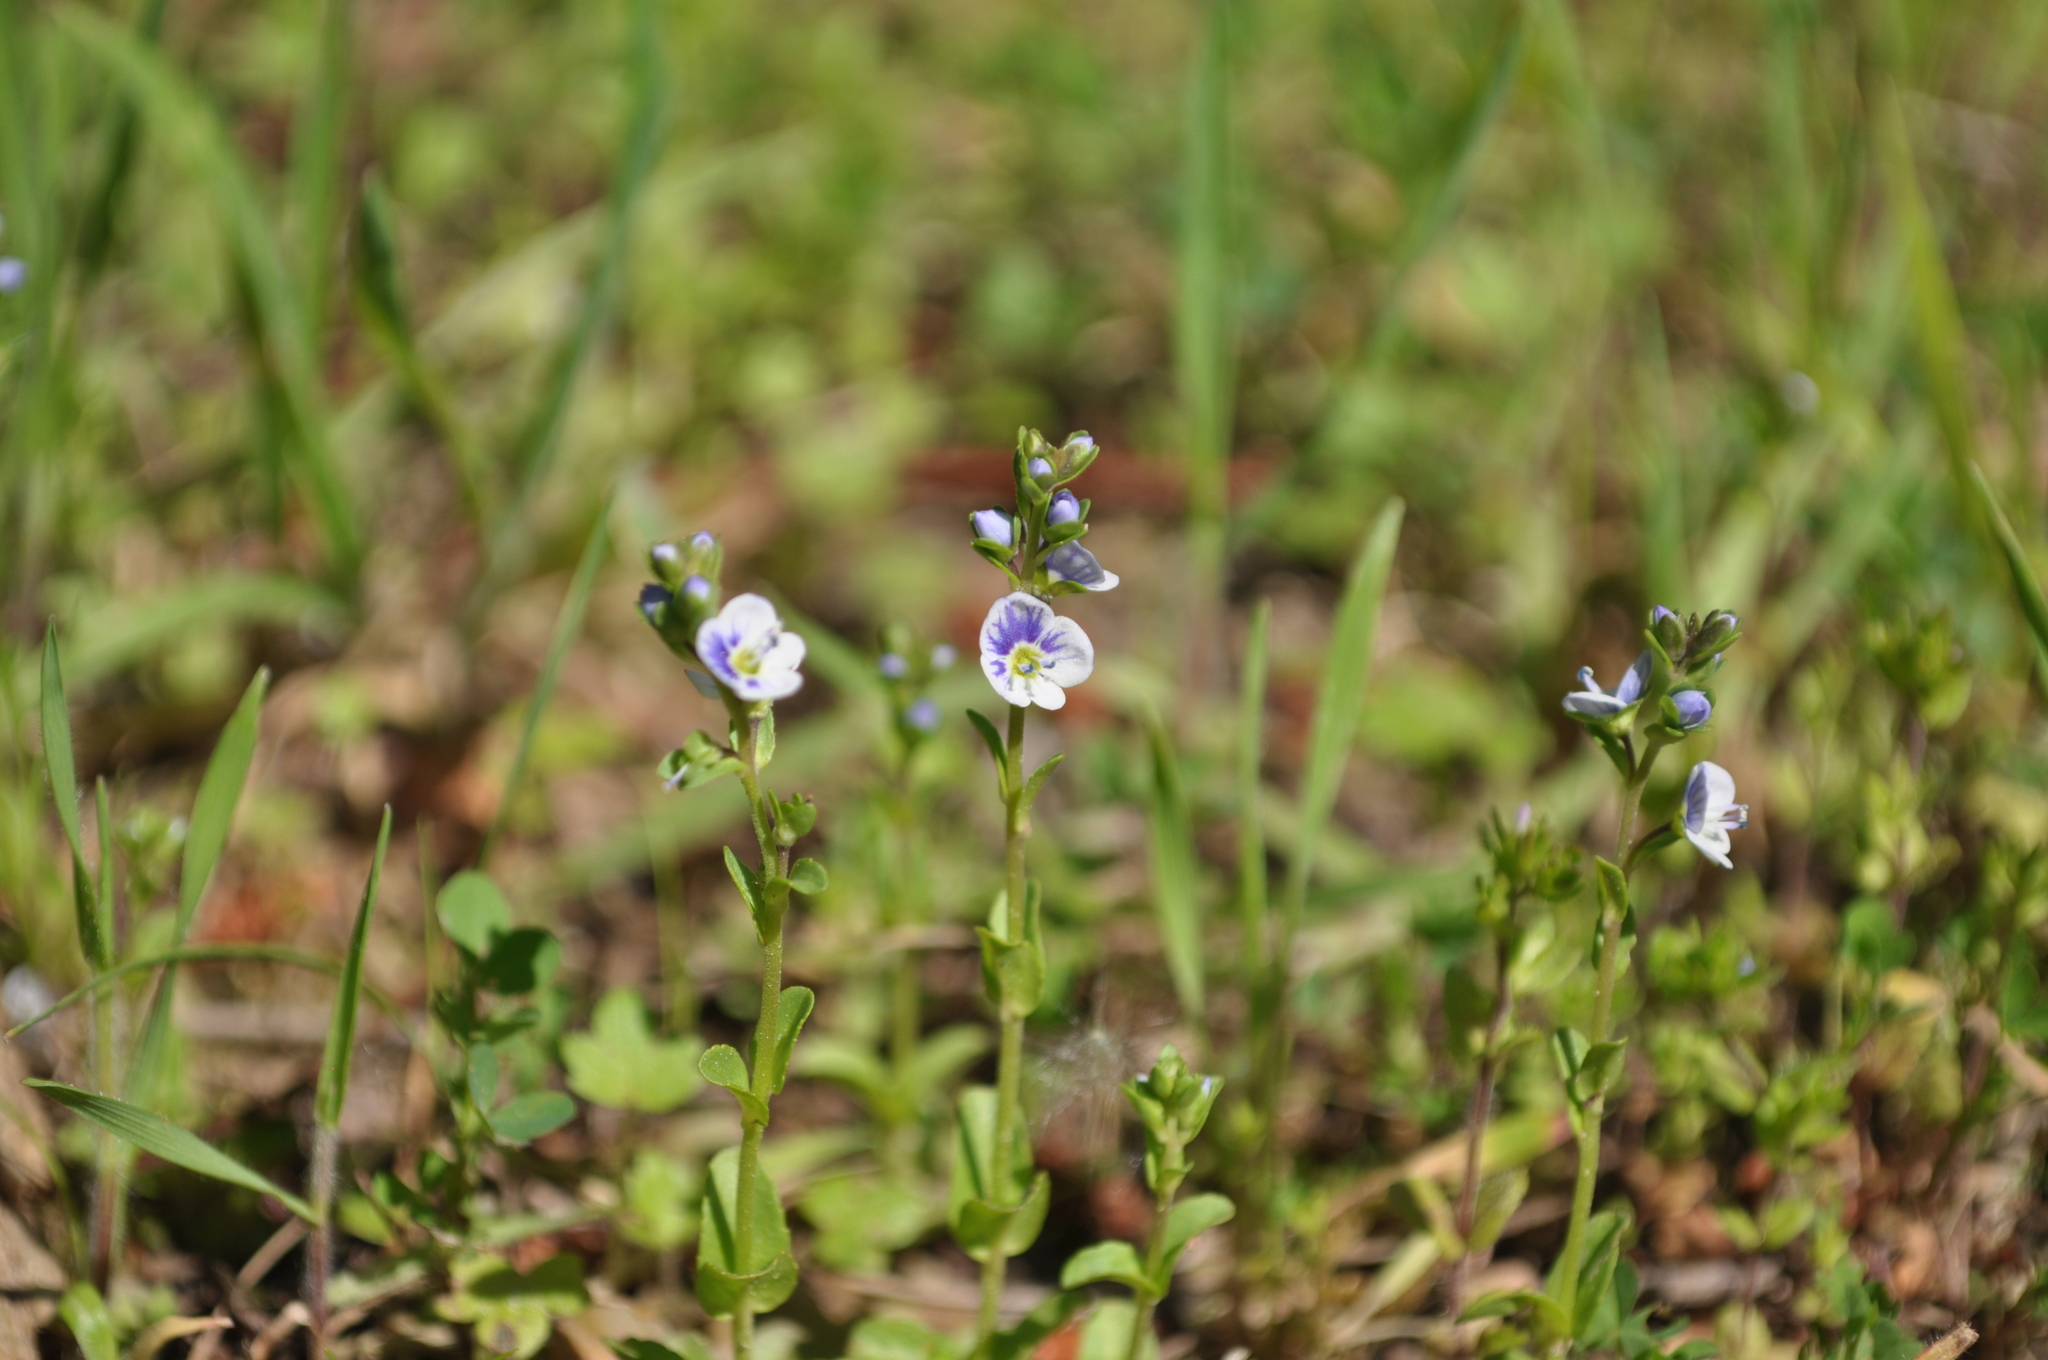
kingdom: Plantae
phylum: Tracheophyta
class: Magnoliopsida
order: Lamiales
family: Plantaginaceae
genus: Veronica
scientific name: Veronica serpyllifolia
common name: Thyme-leaved speedwell
